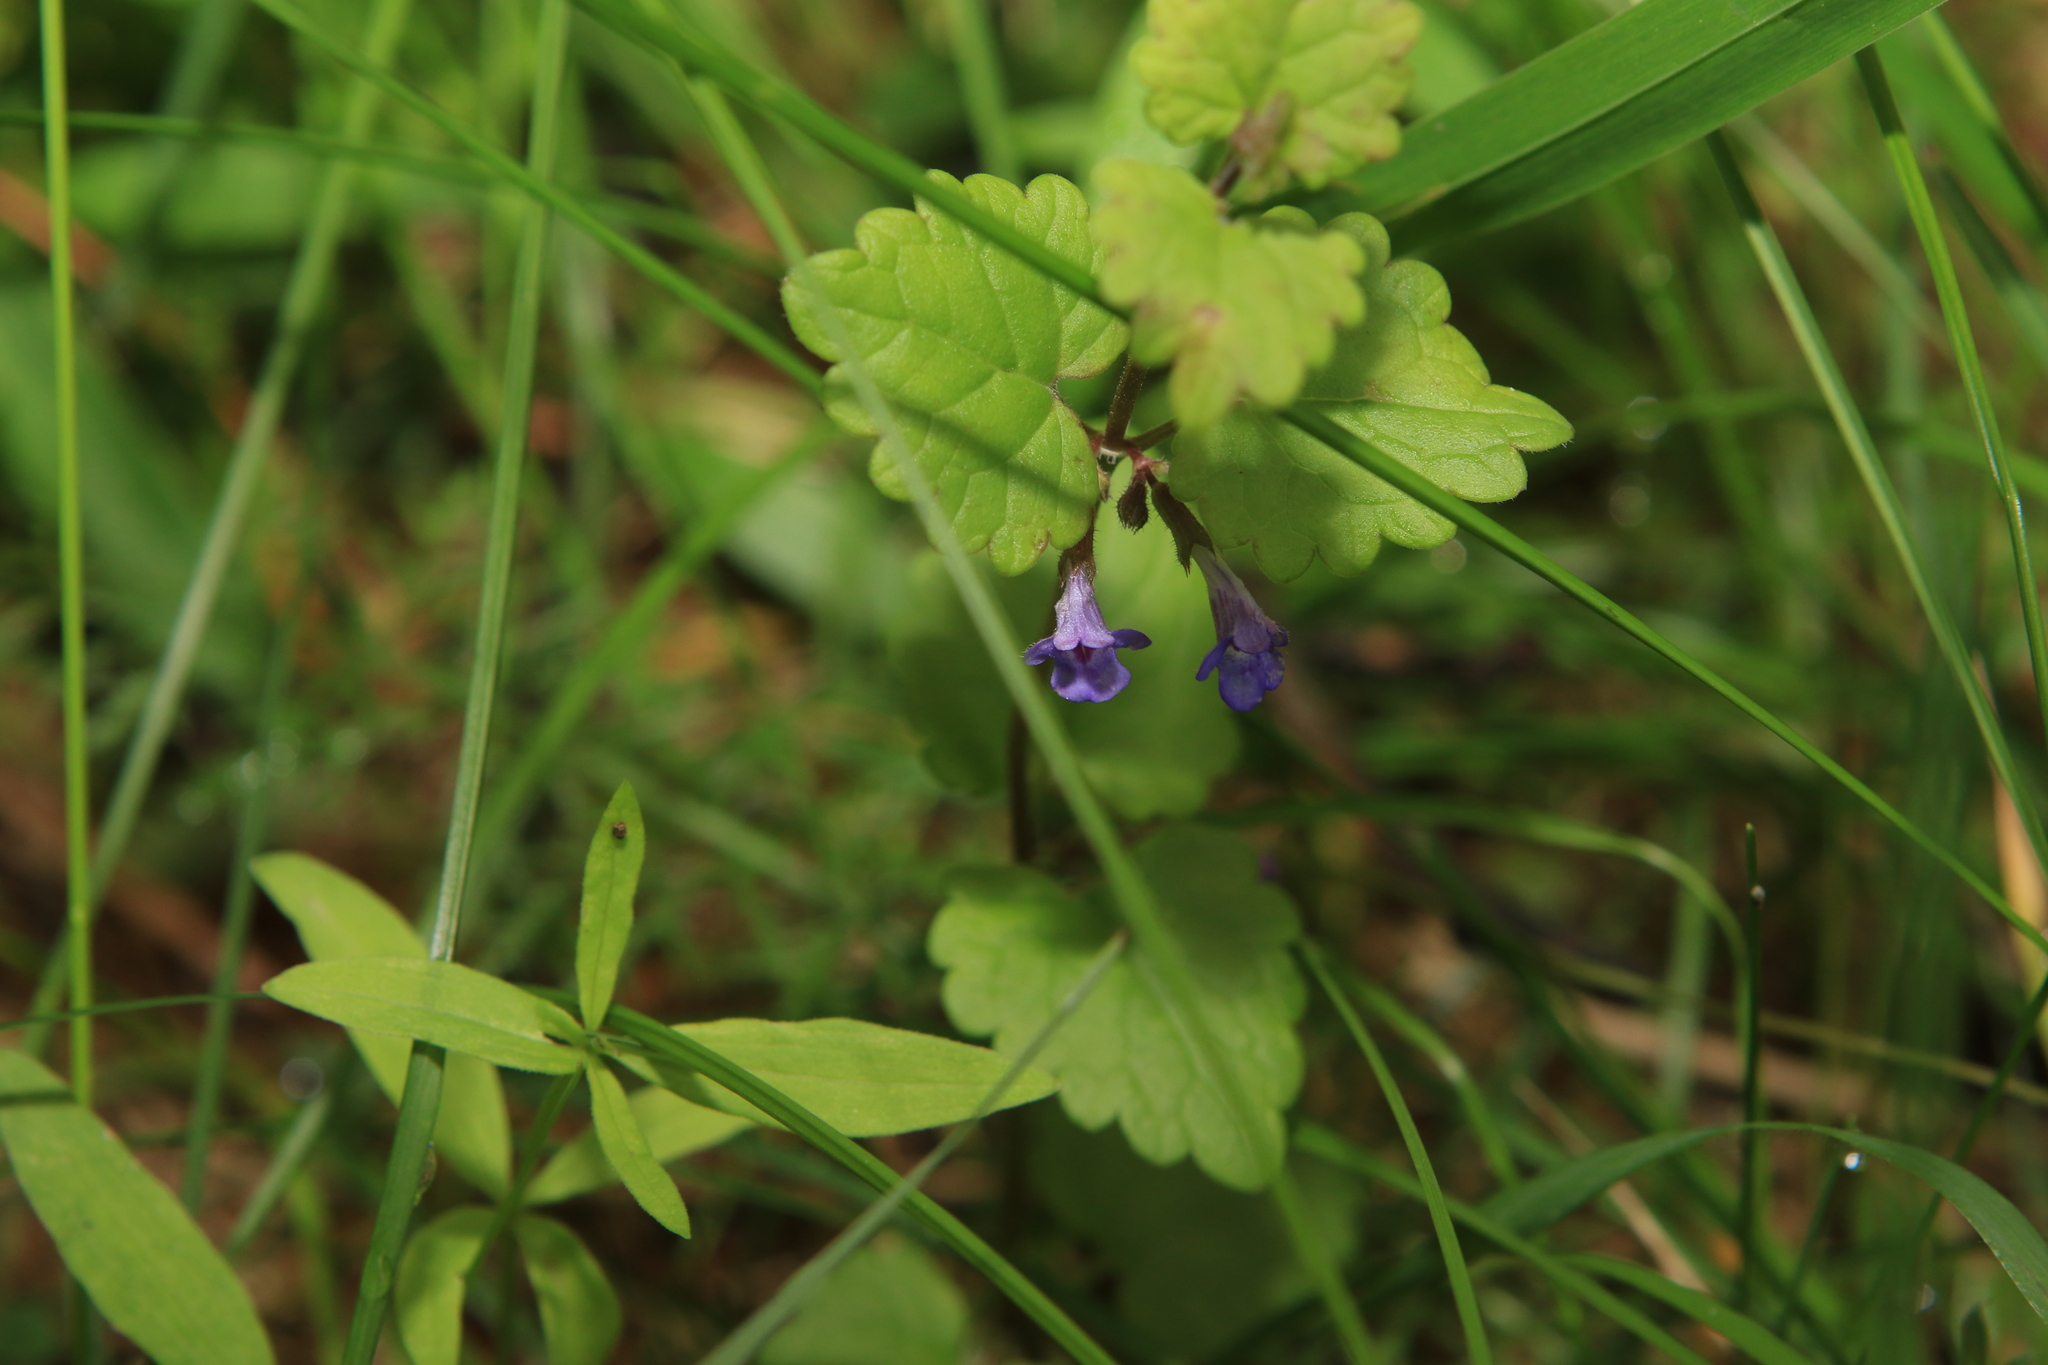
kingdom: Plantae
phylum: Tracheophyta
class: Magnoliopsida
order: Lamiales
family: Lamiaceae
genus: Glechoma
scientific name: Glechoma hederacea
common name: Ground ivy
